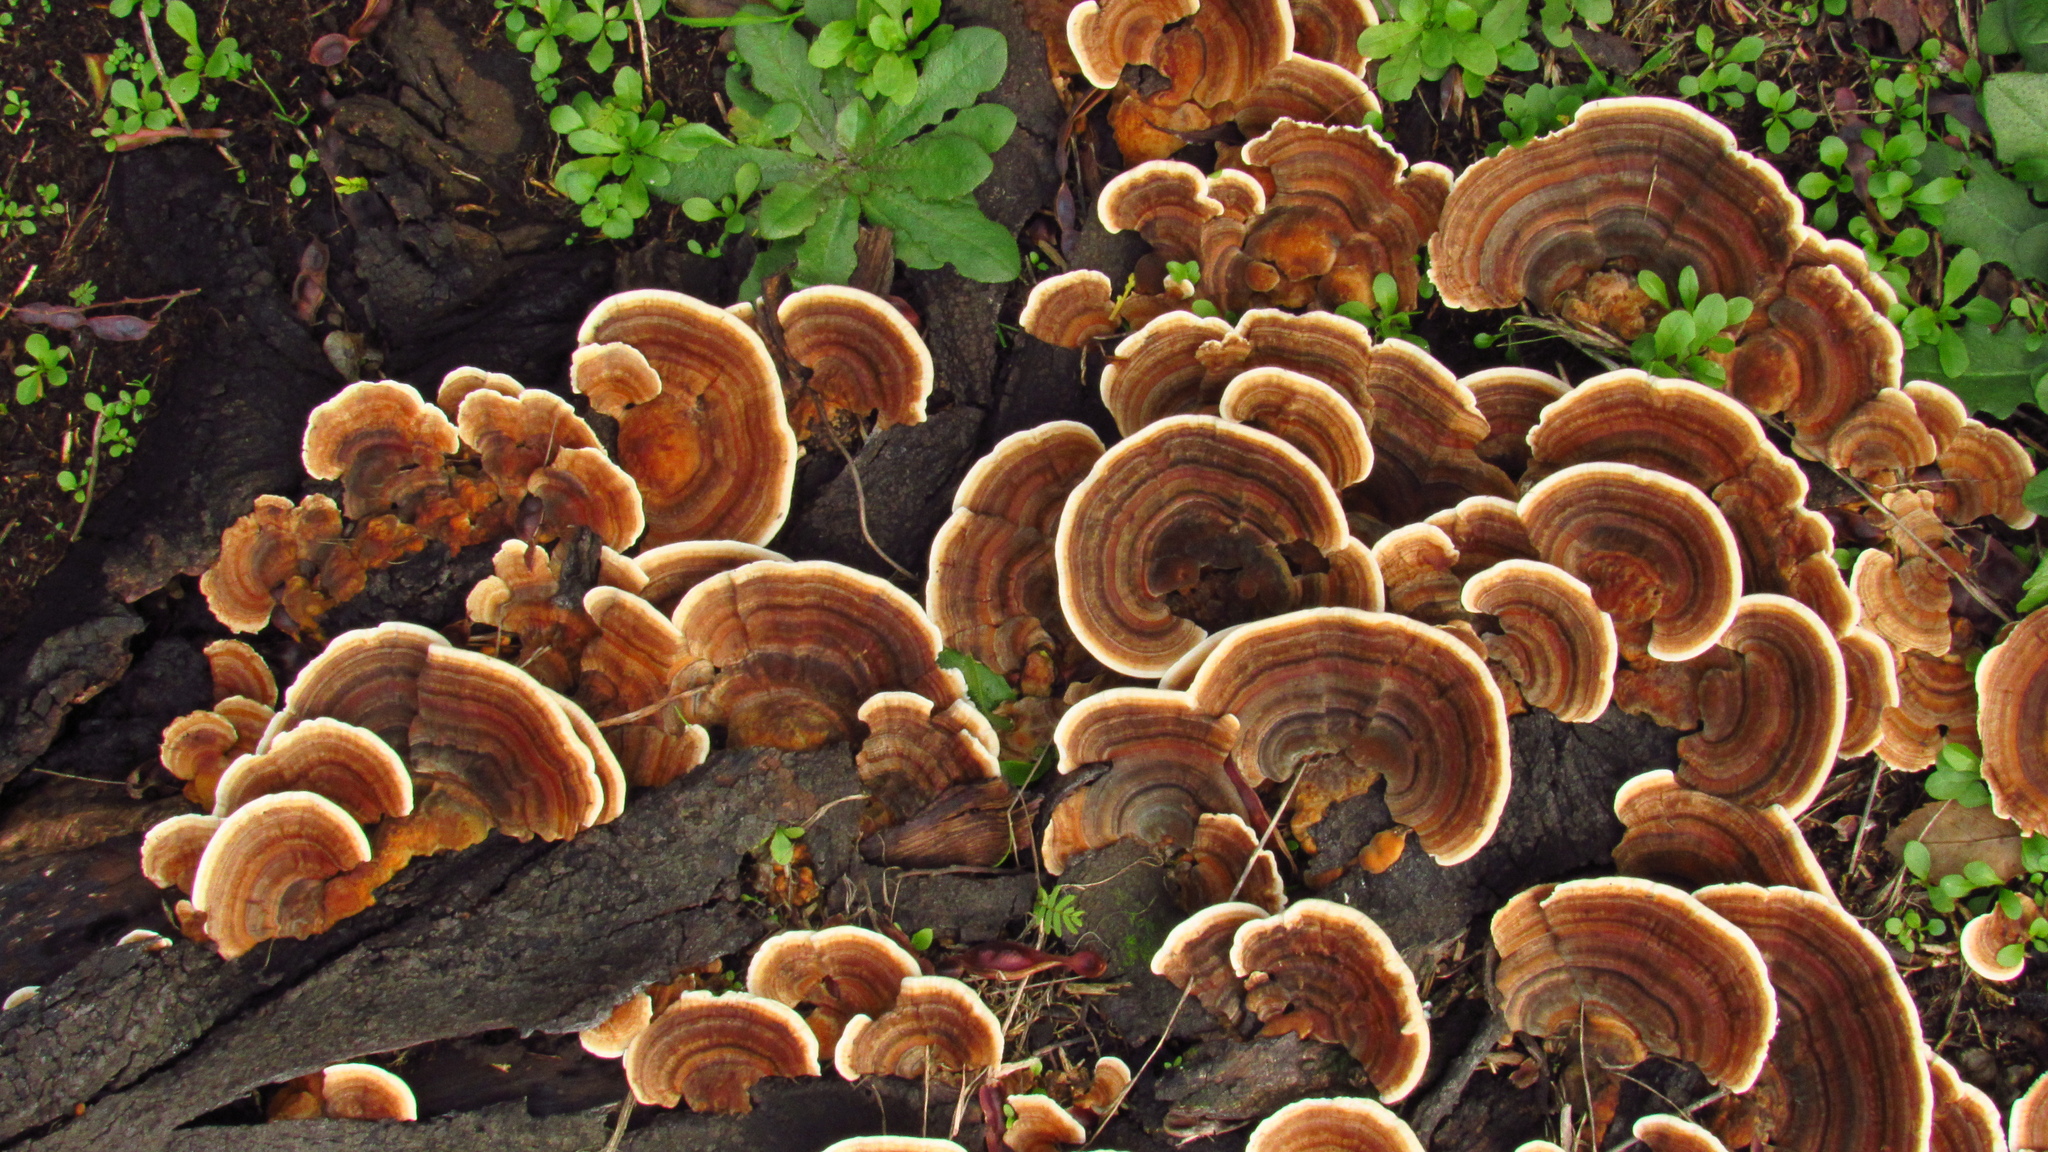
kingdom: Fungi
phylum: Basidiomycota
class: Agaricomycetes
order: Polyporales
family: Polyporaceae
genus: Trametes
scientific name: Trametes versicolor
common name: Turkeytail
